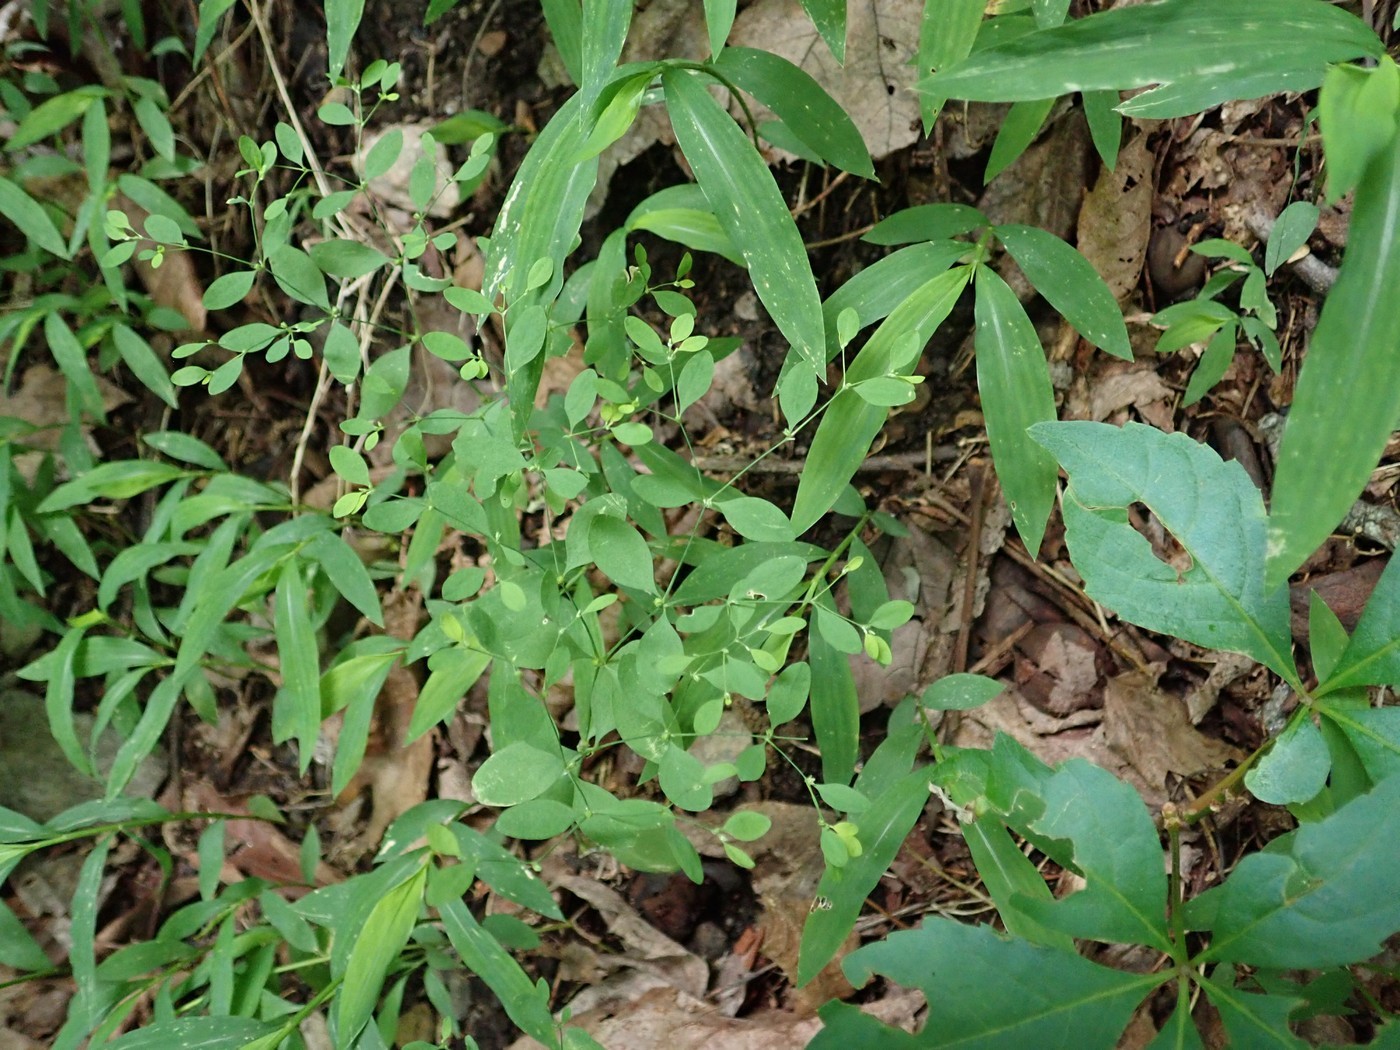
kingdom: Plantae
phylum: Tracheophyta
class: Magnoliopsida
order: Caryophyllales
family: Caryophyllaceae
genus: Paronychia
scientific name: Paronychia canadensis
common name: Canada forked nailwort
